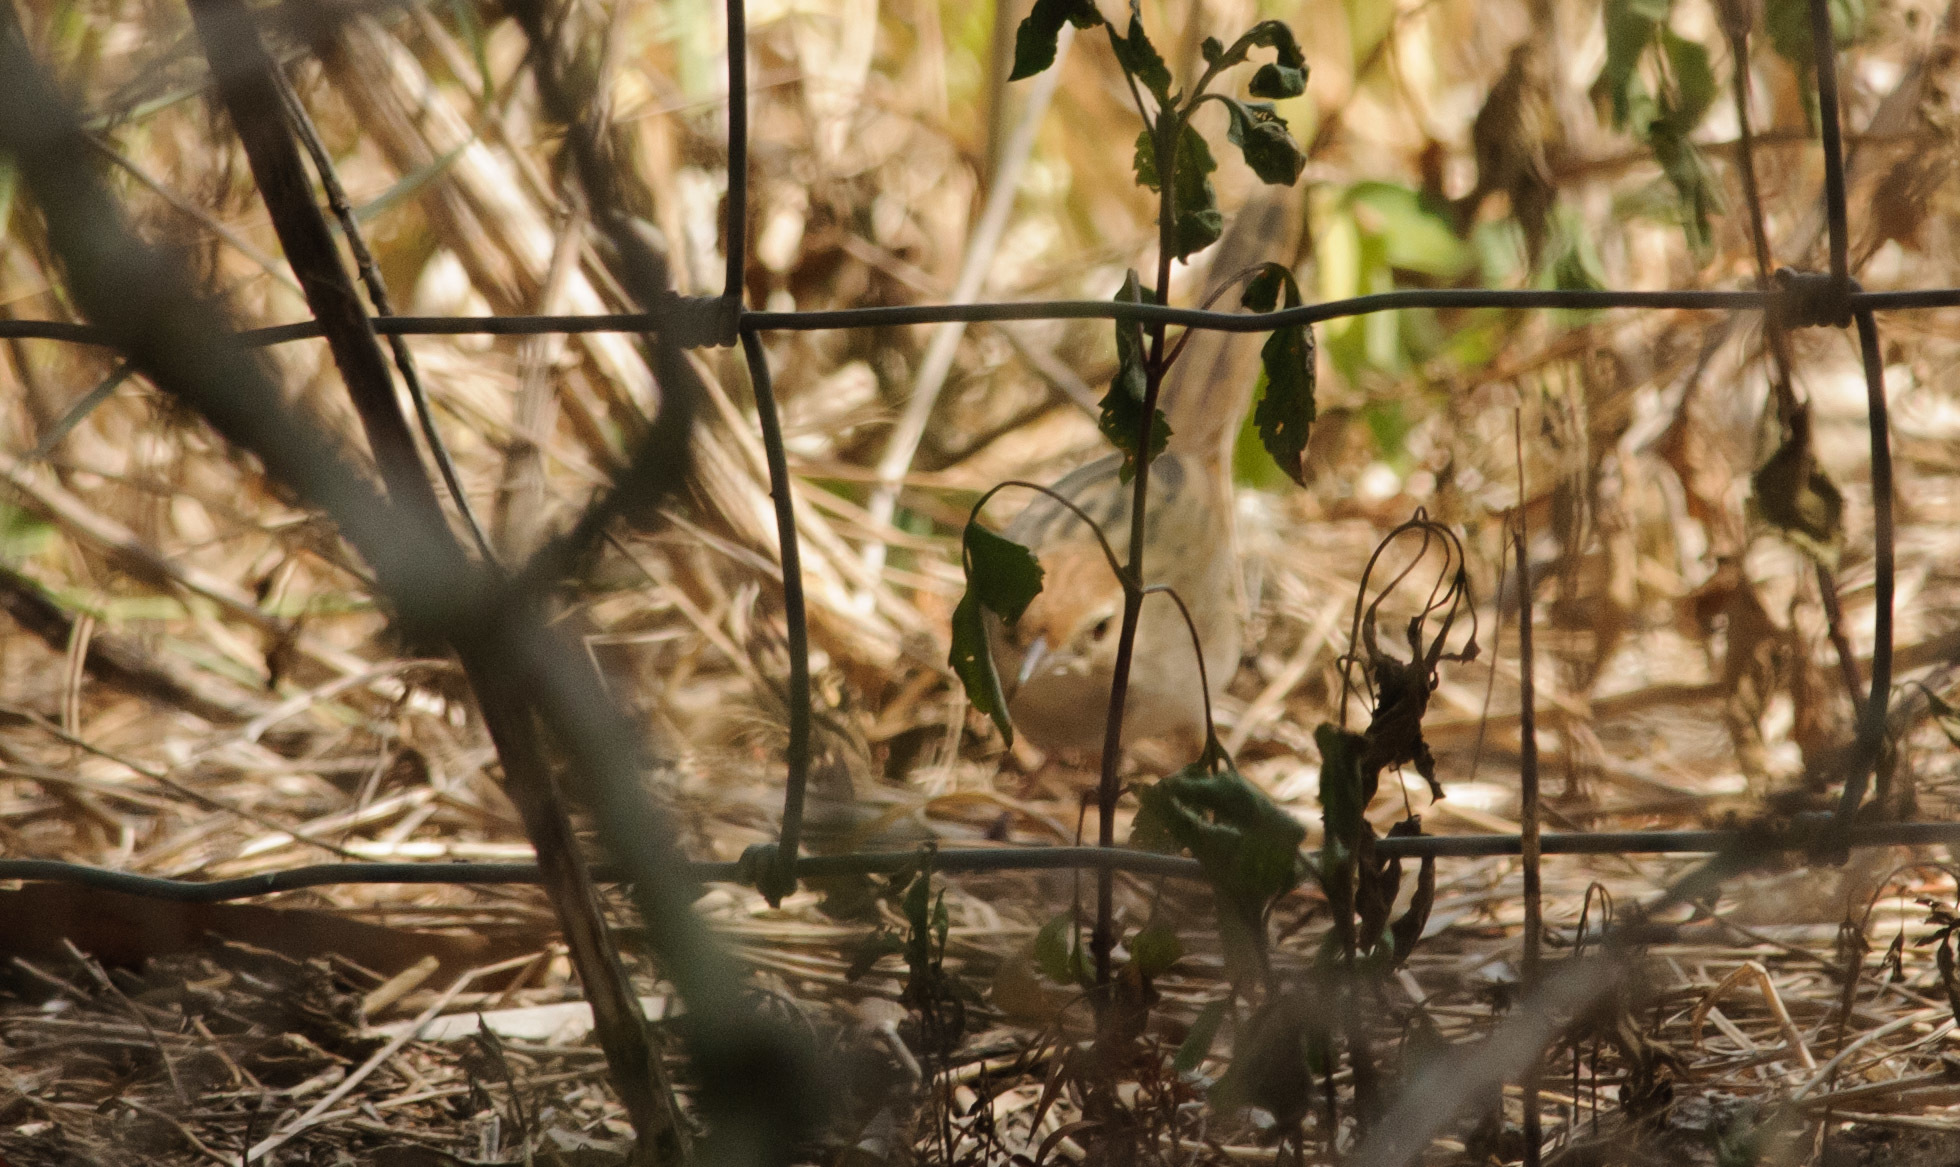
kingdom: Animalia
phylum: Chordata
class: Aves
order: Passeriformes
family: Locustellidae
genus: Megalurus
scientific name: Megalurus timoriensis
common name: Tawny grassbird
